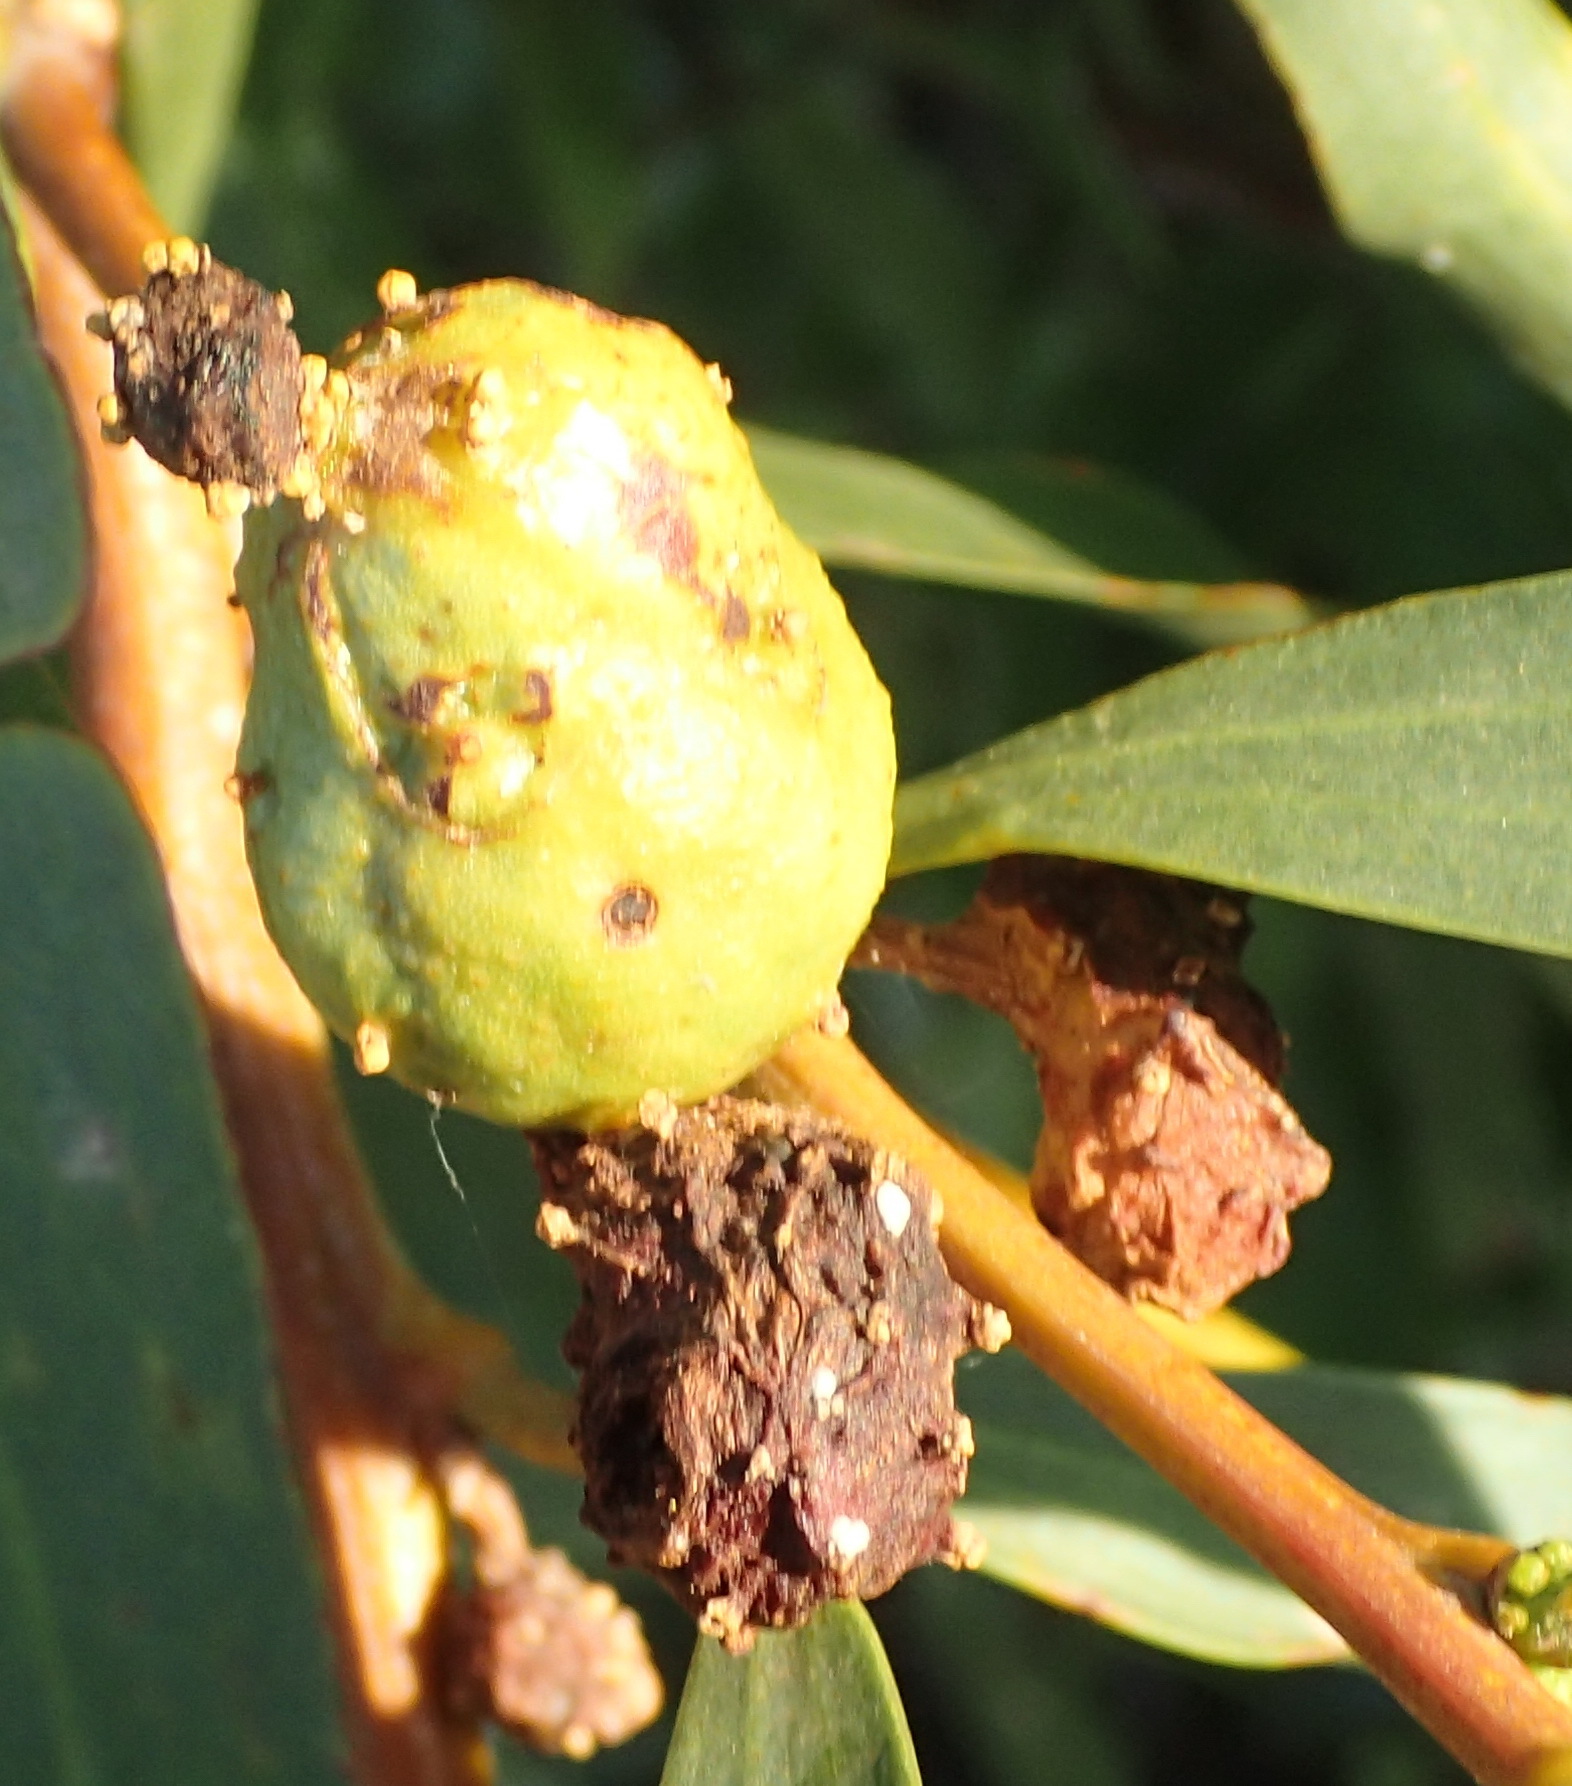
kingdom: Animalia
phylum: Arthropoda
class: Insecta
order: Hymenoptera
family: Pteromalidae
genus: Trichilogaster
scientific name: Trichilogaster acaciaelongifoliae
